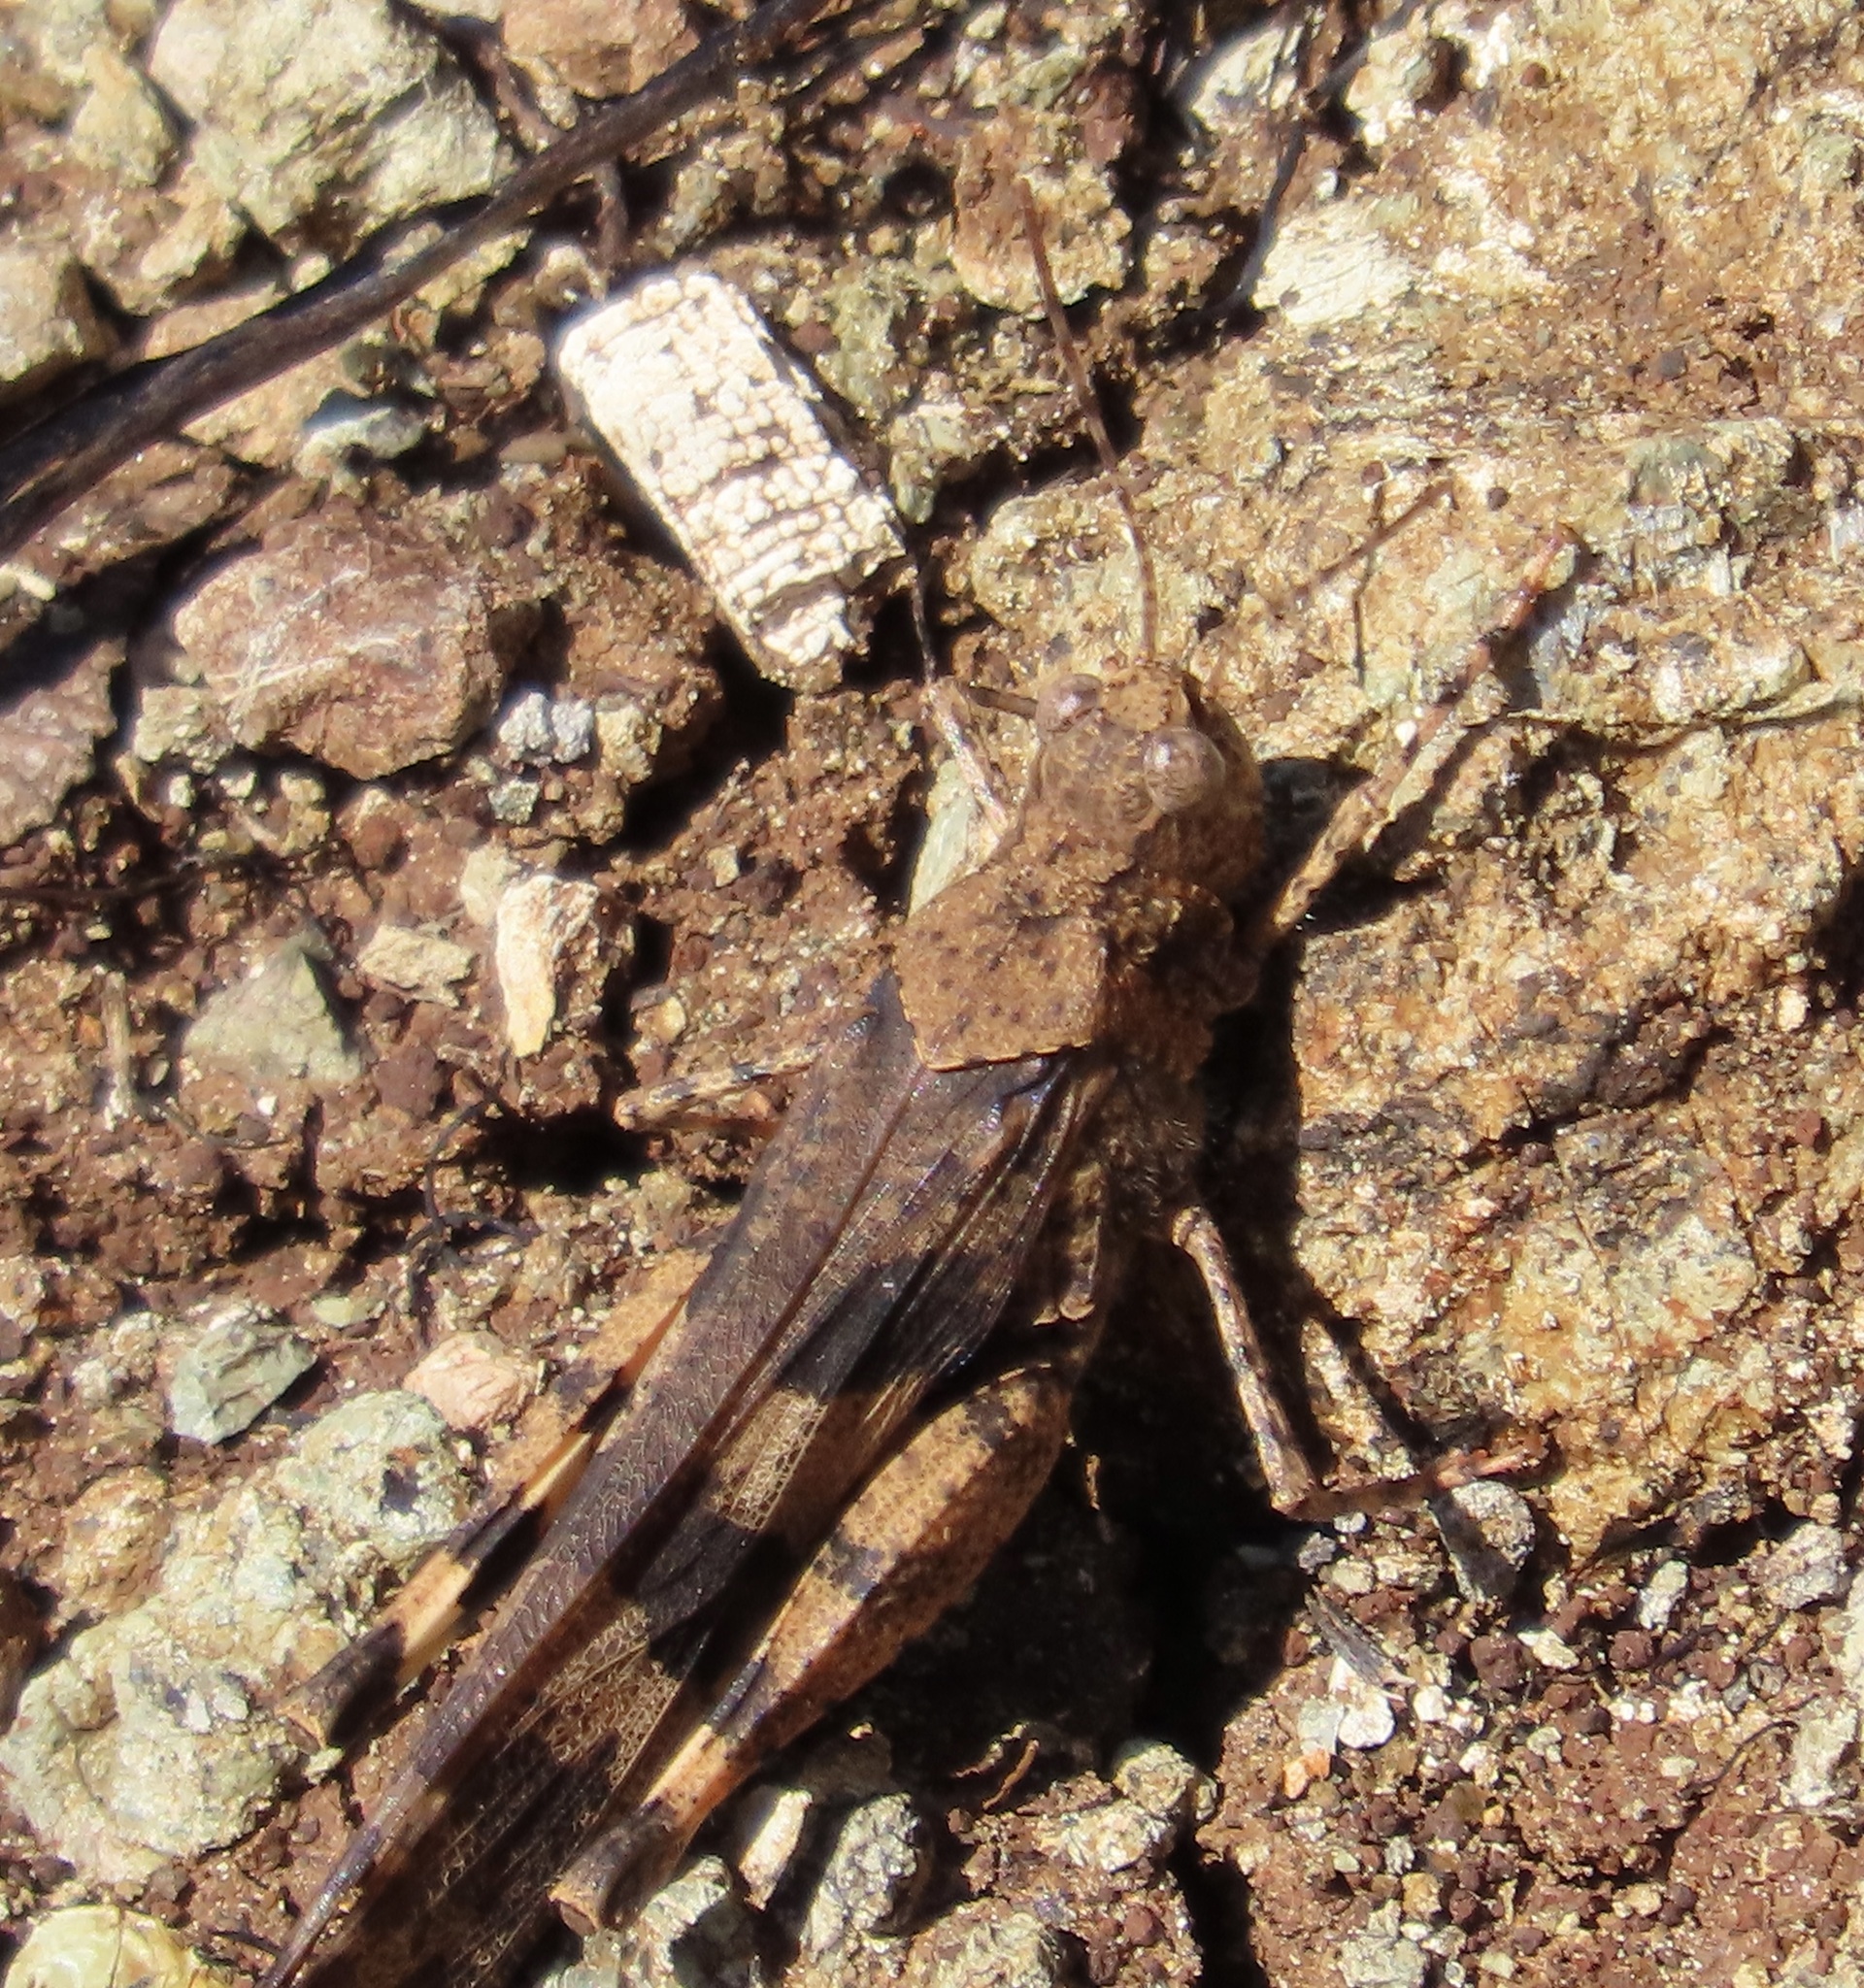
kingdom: Animalia
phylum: Arthropoda
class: Insecta
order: Orthoptera
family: Acrididae
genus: Trimerotropis
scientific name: Trimerotropis fontana
